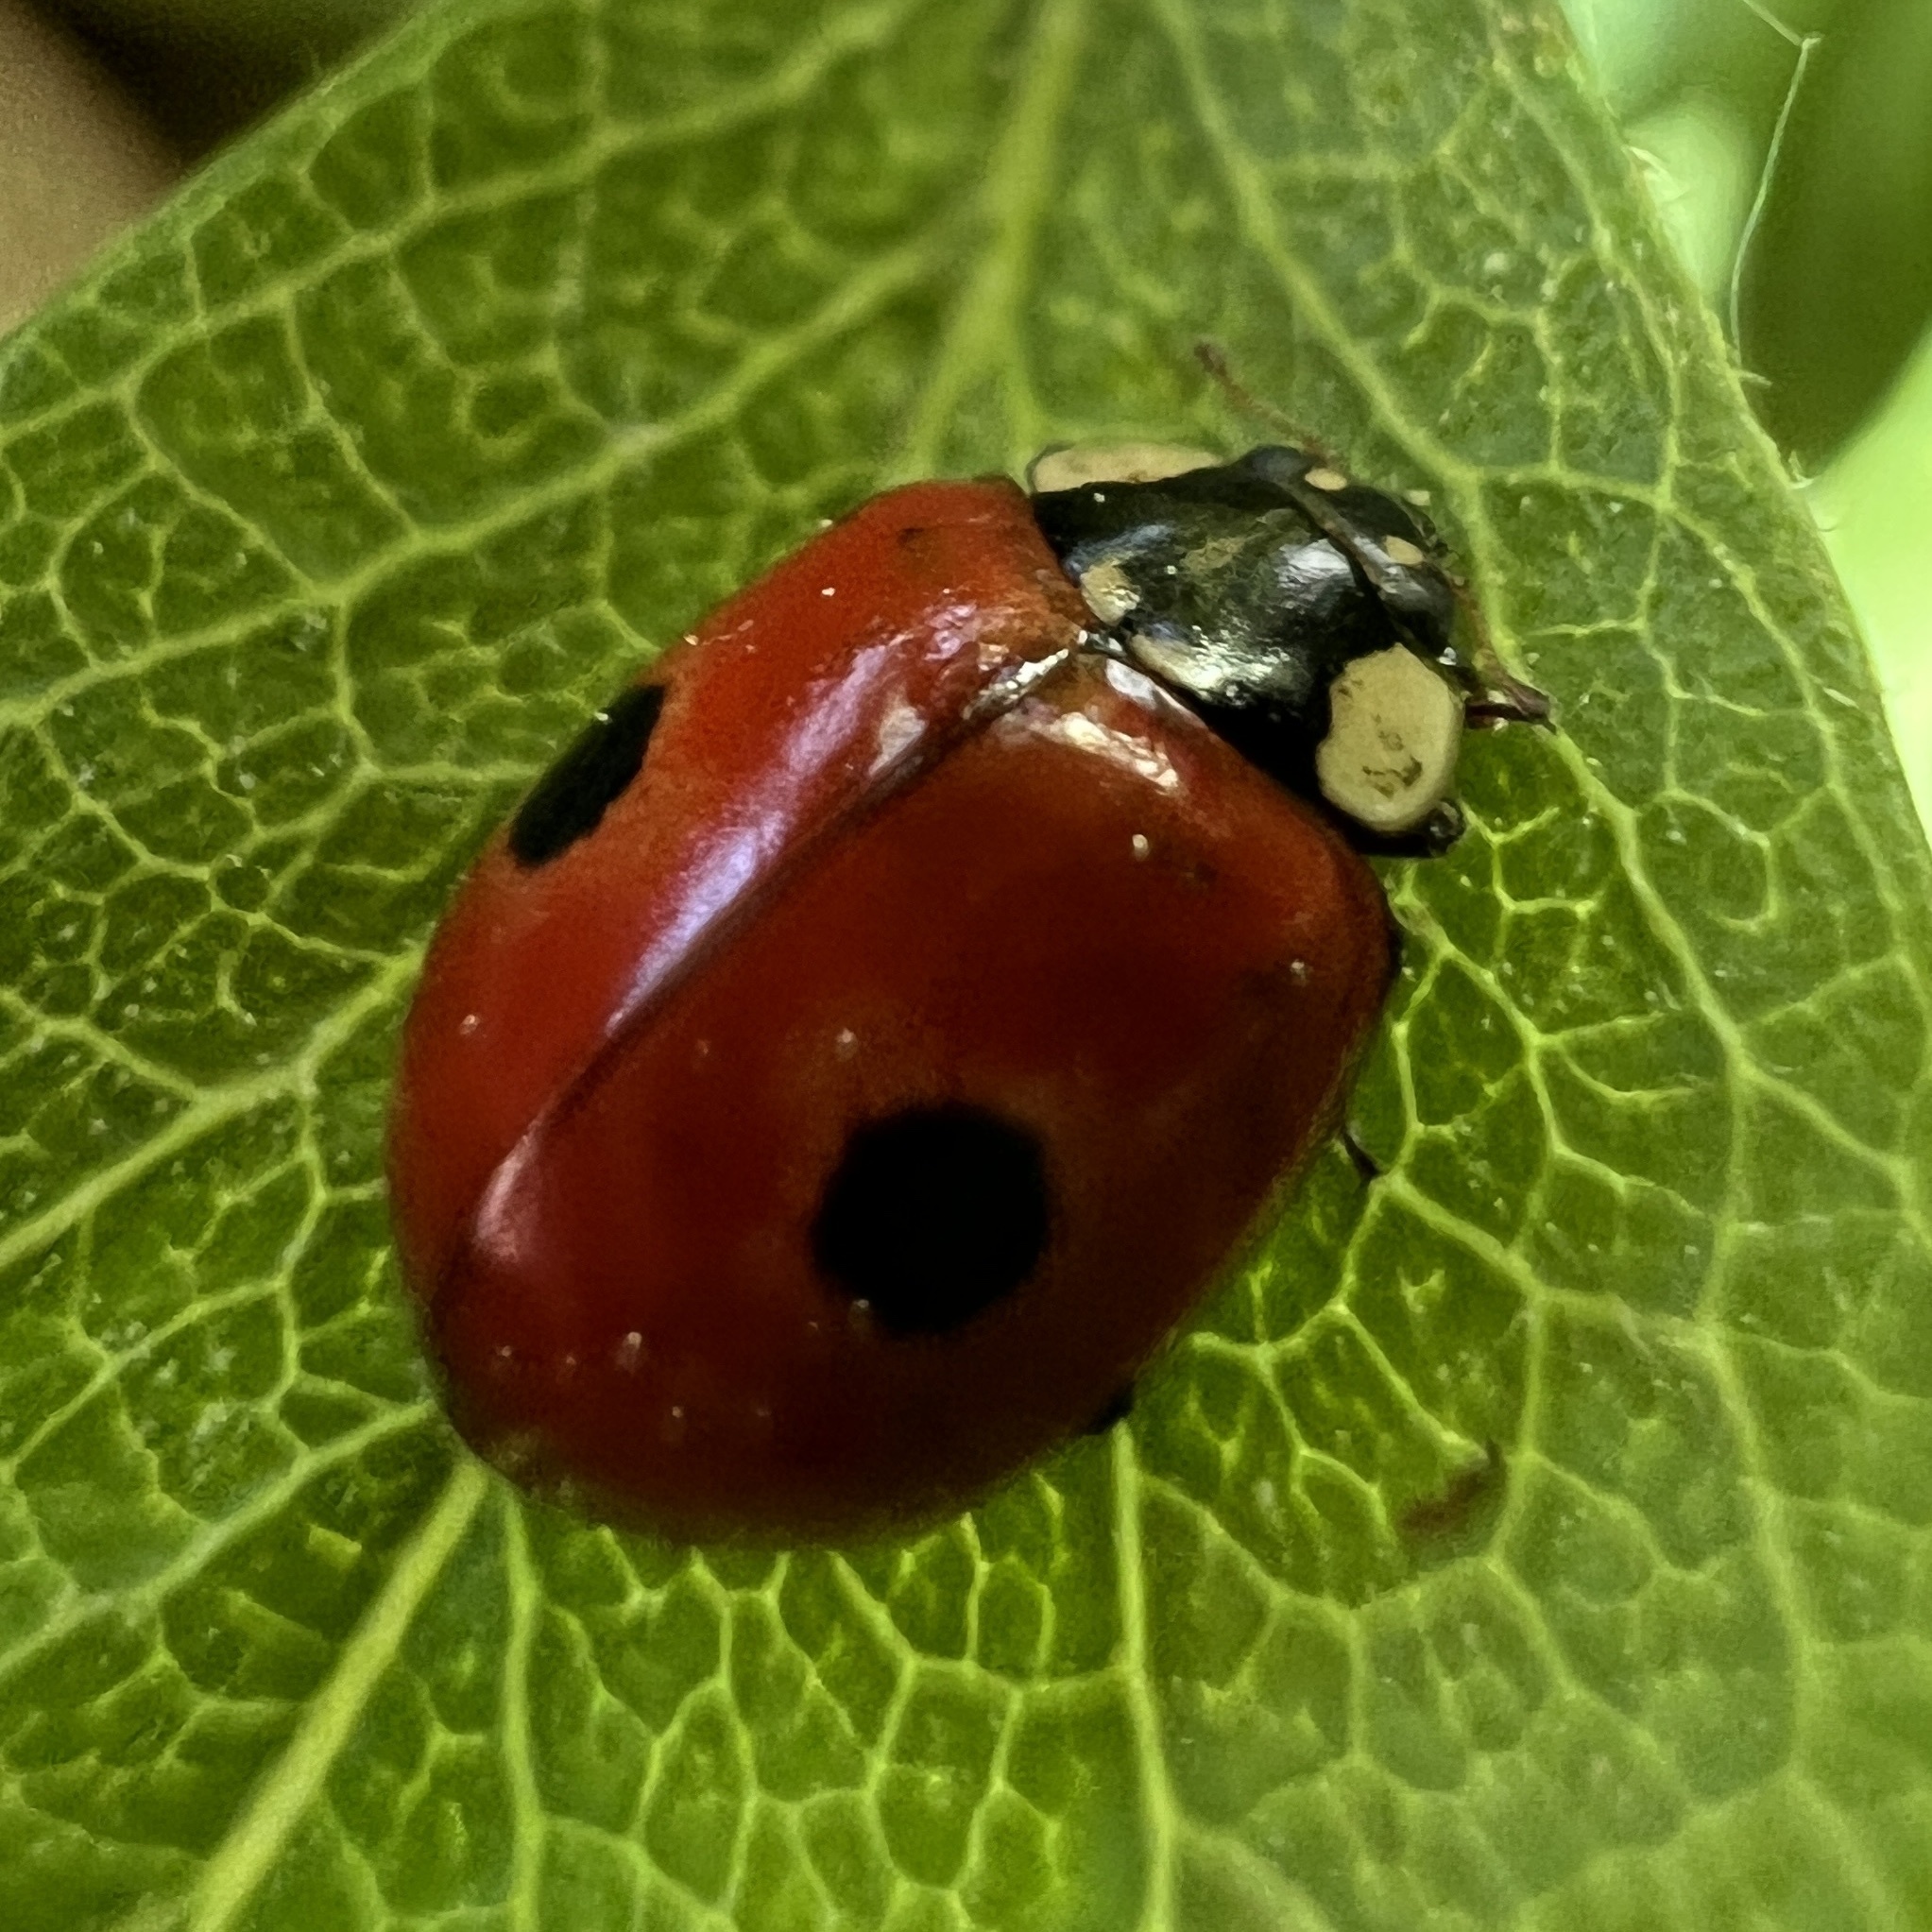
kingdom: Animalia
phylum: Arthropoda
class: Insecta
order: Coleoptera
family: Coccinellidae
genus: Adalia
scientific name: Adalia bipunctata
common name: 2-spot ladybird
